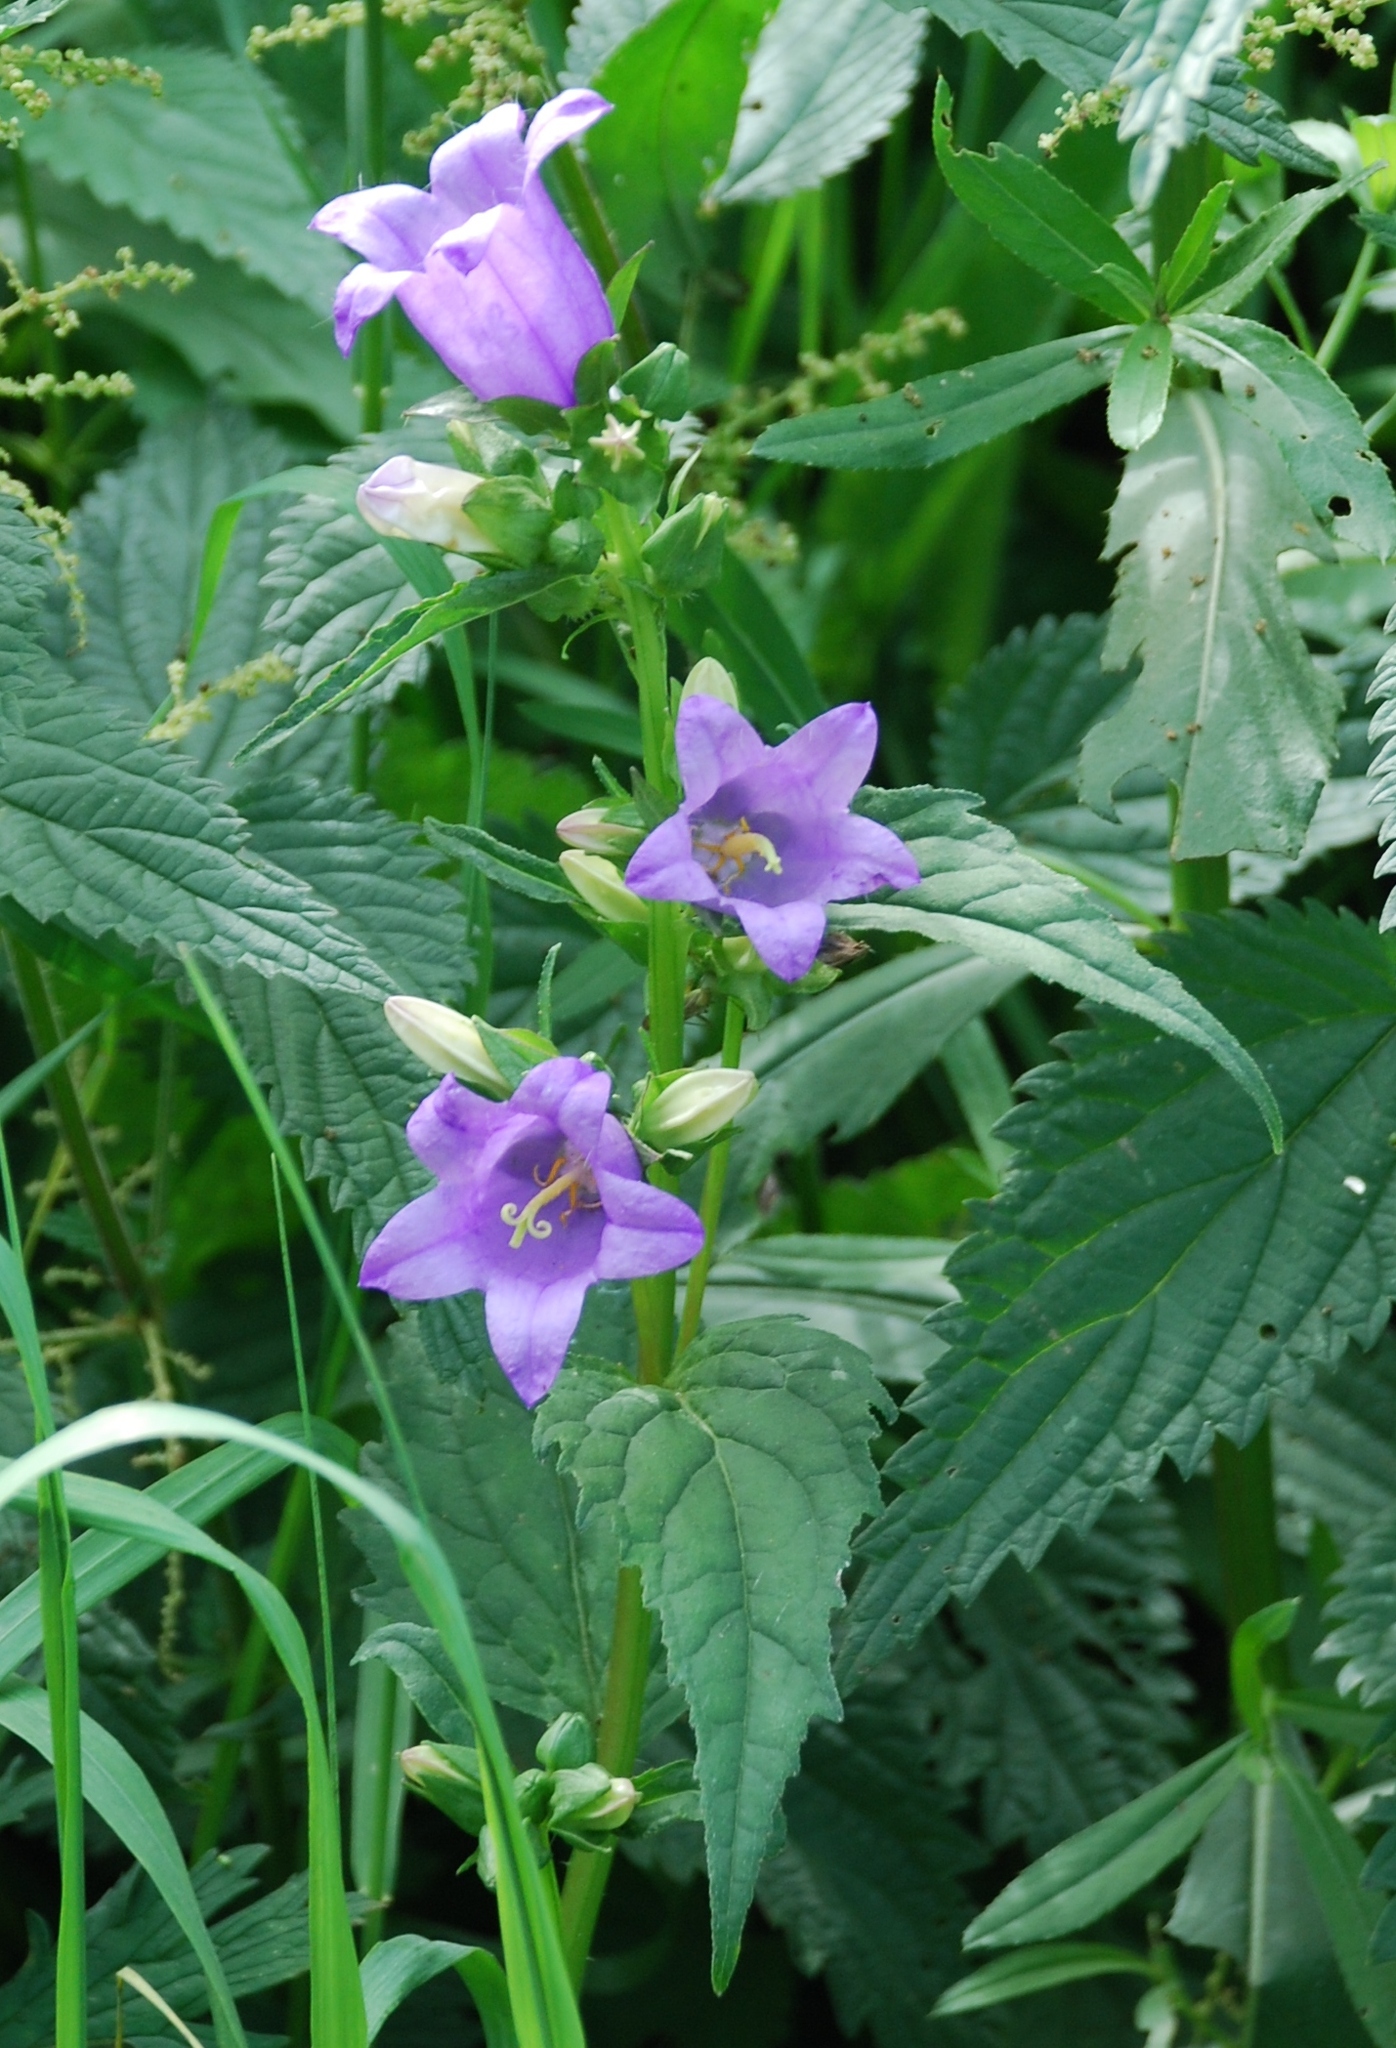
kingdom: Plantae
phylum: Tracheophyta
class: Magnoliopsida
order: Asterales
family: Campanulaceae
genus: Campanula
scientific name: Campanula trachelium
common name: Nettle-leaved bellflower
